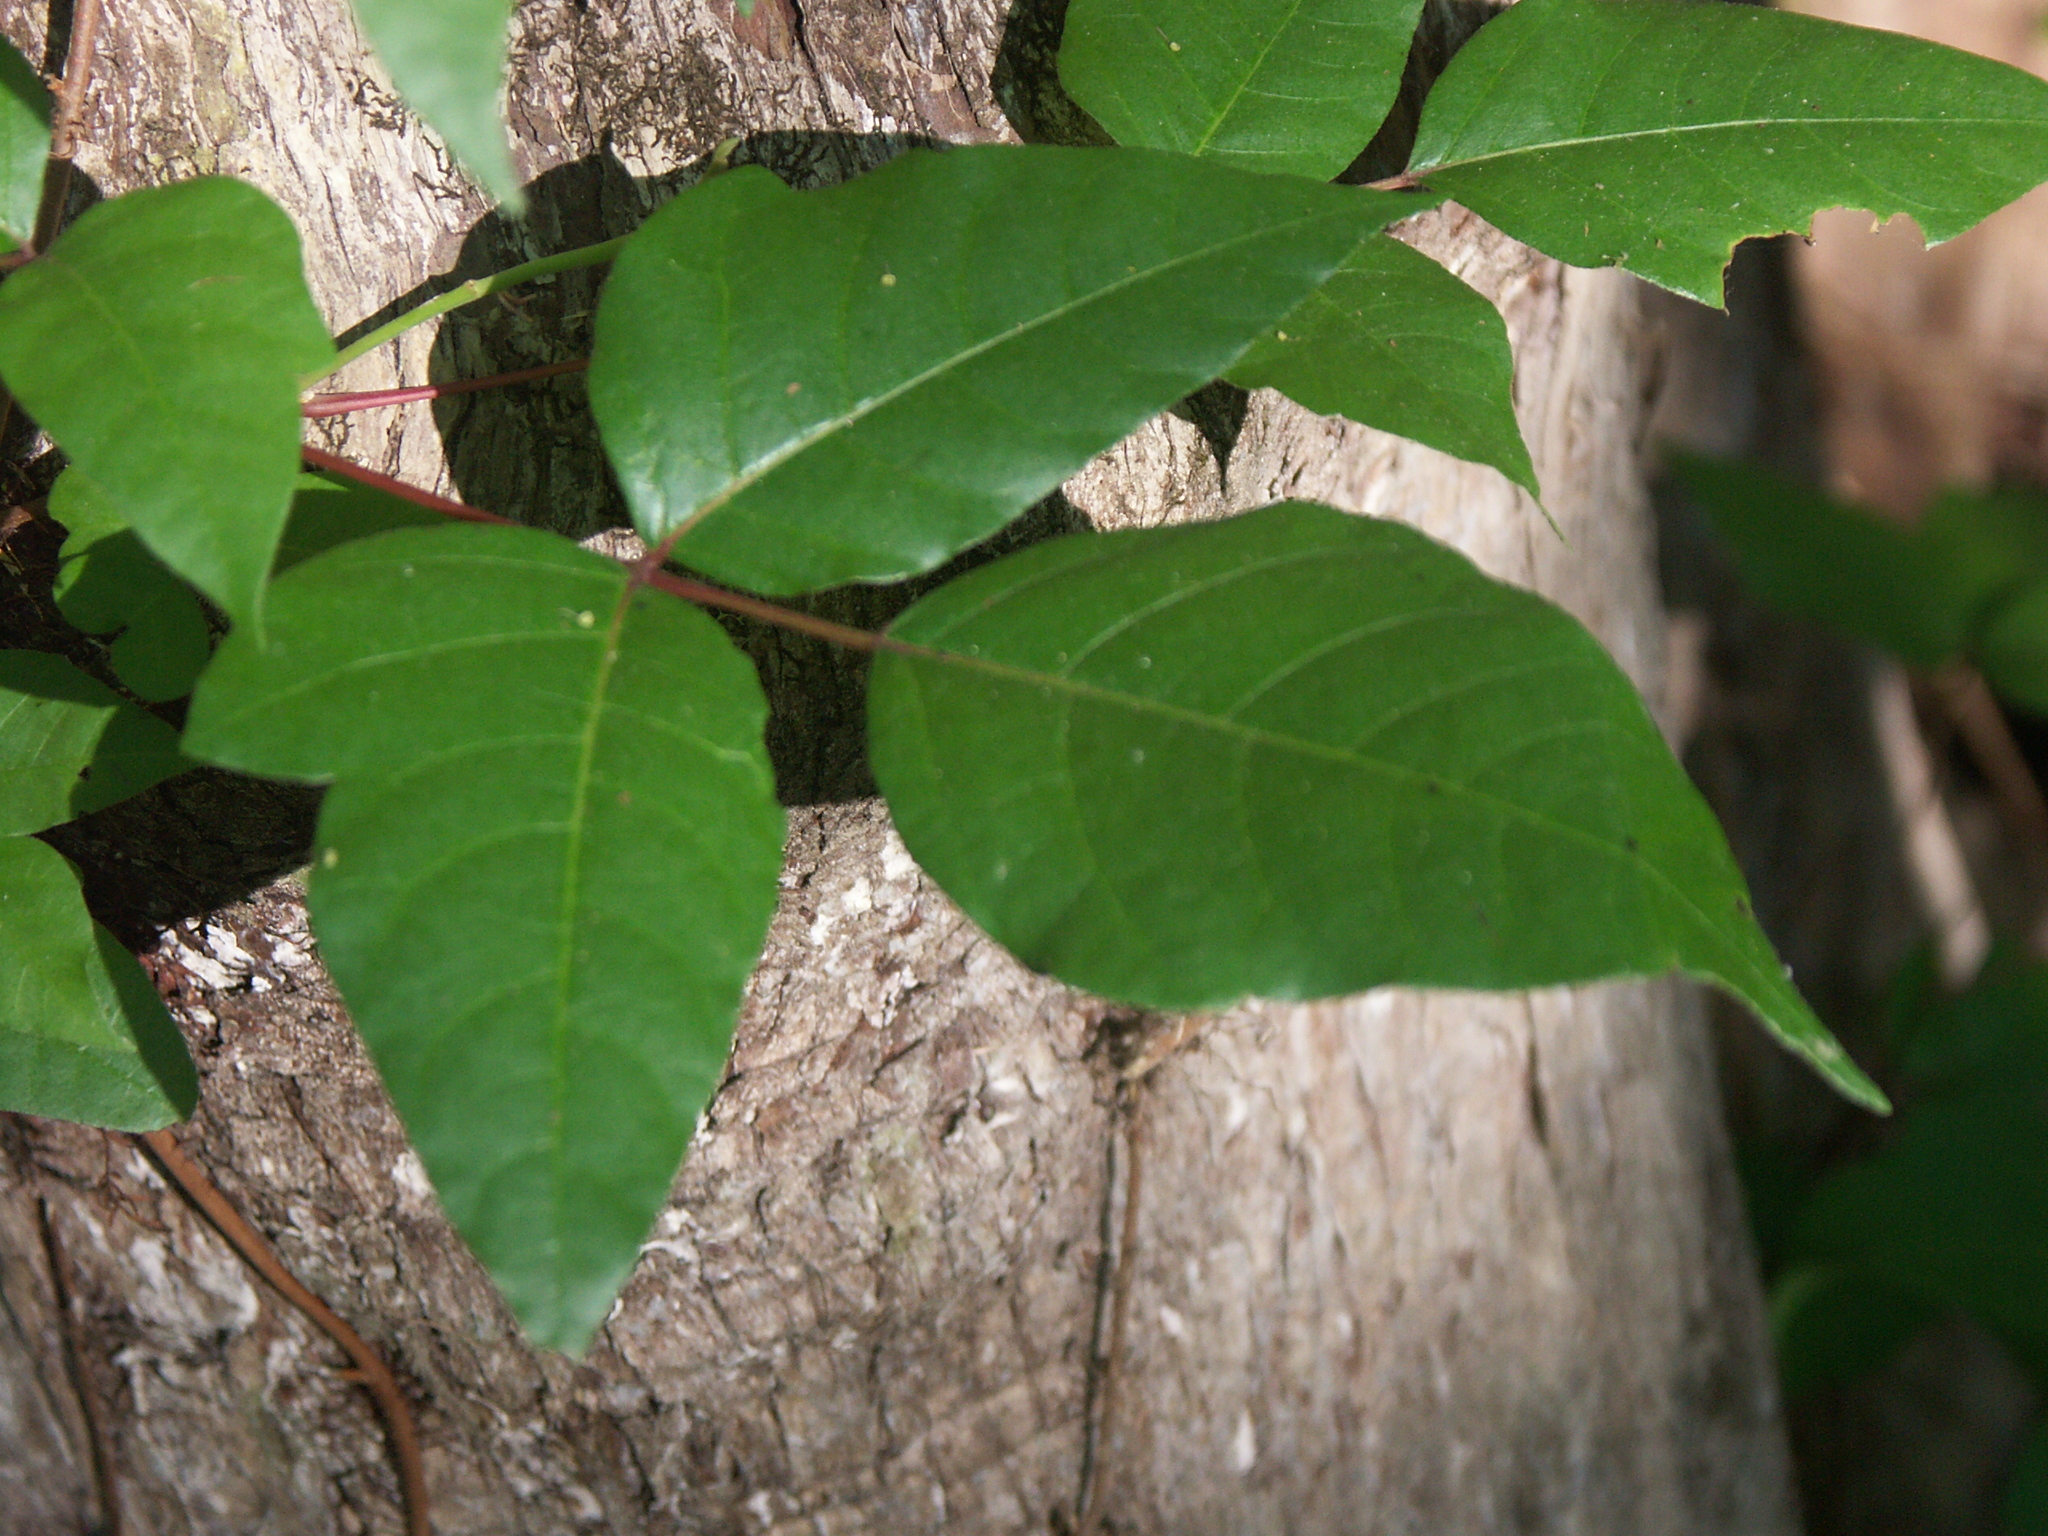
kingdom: Plantae
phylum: Tracheophyta
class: Magnoliopsida
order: Sapindales
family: Anacardiaceae
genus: Toxicodendron
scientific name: Toxicodendron radicans
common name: Poison ivy
